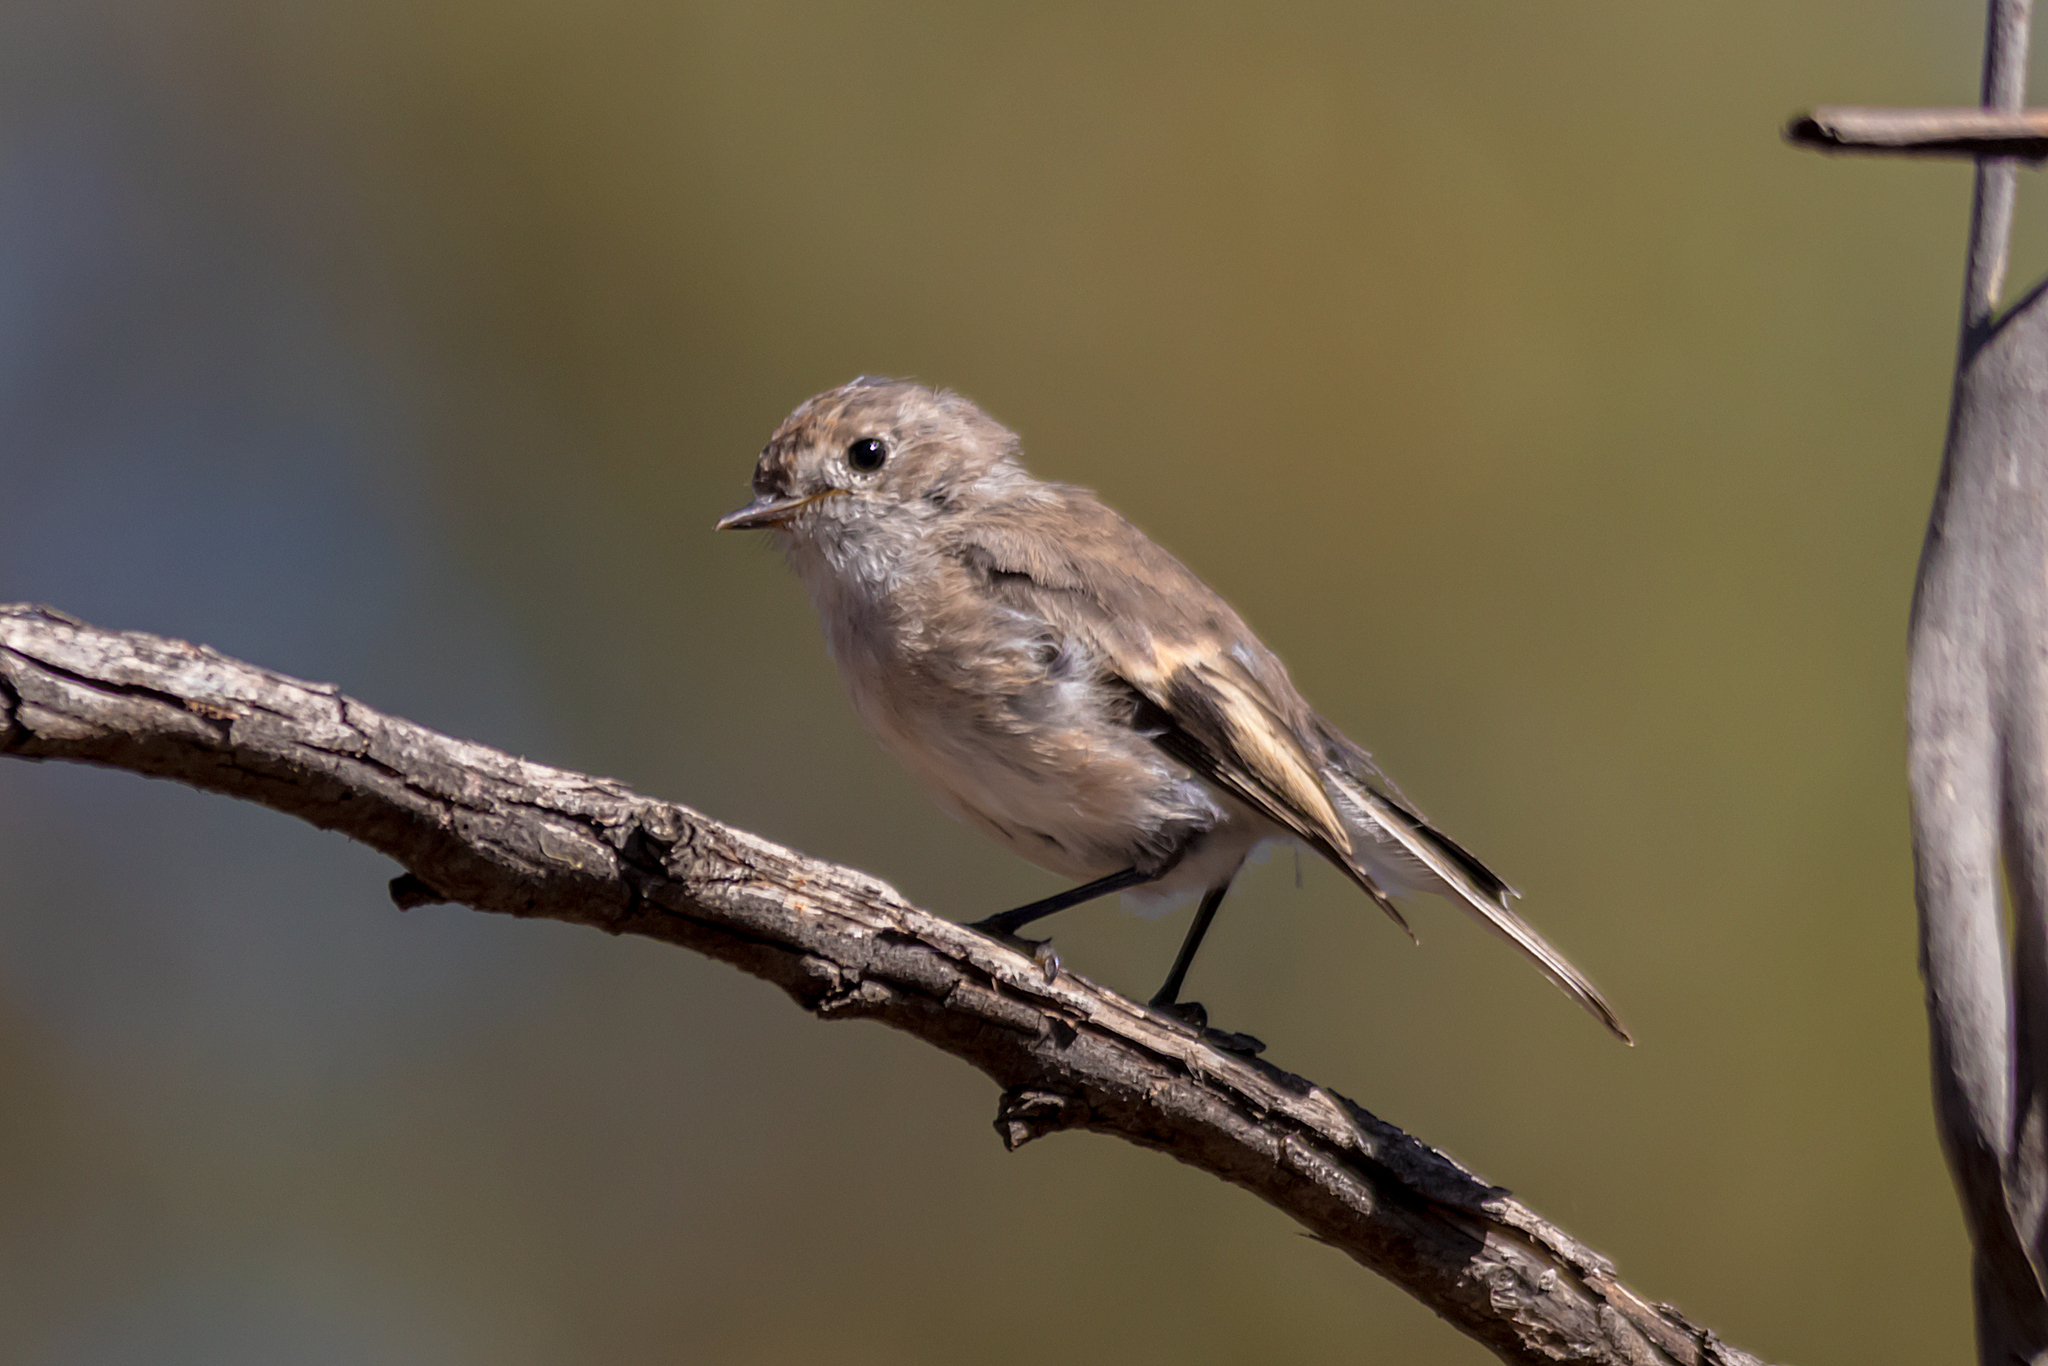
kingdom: Animalia
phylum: Chordata
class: Aves
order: Passeriformes
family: Petroicidae
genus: Petroica
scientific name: Petroica goodenovii
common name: Red-capped robin
